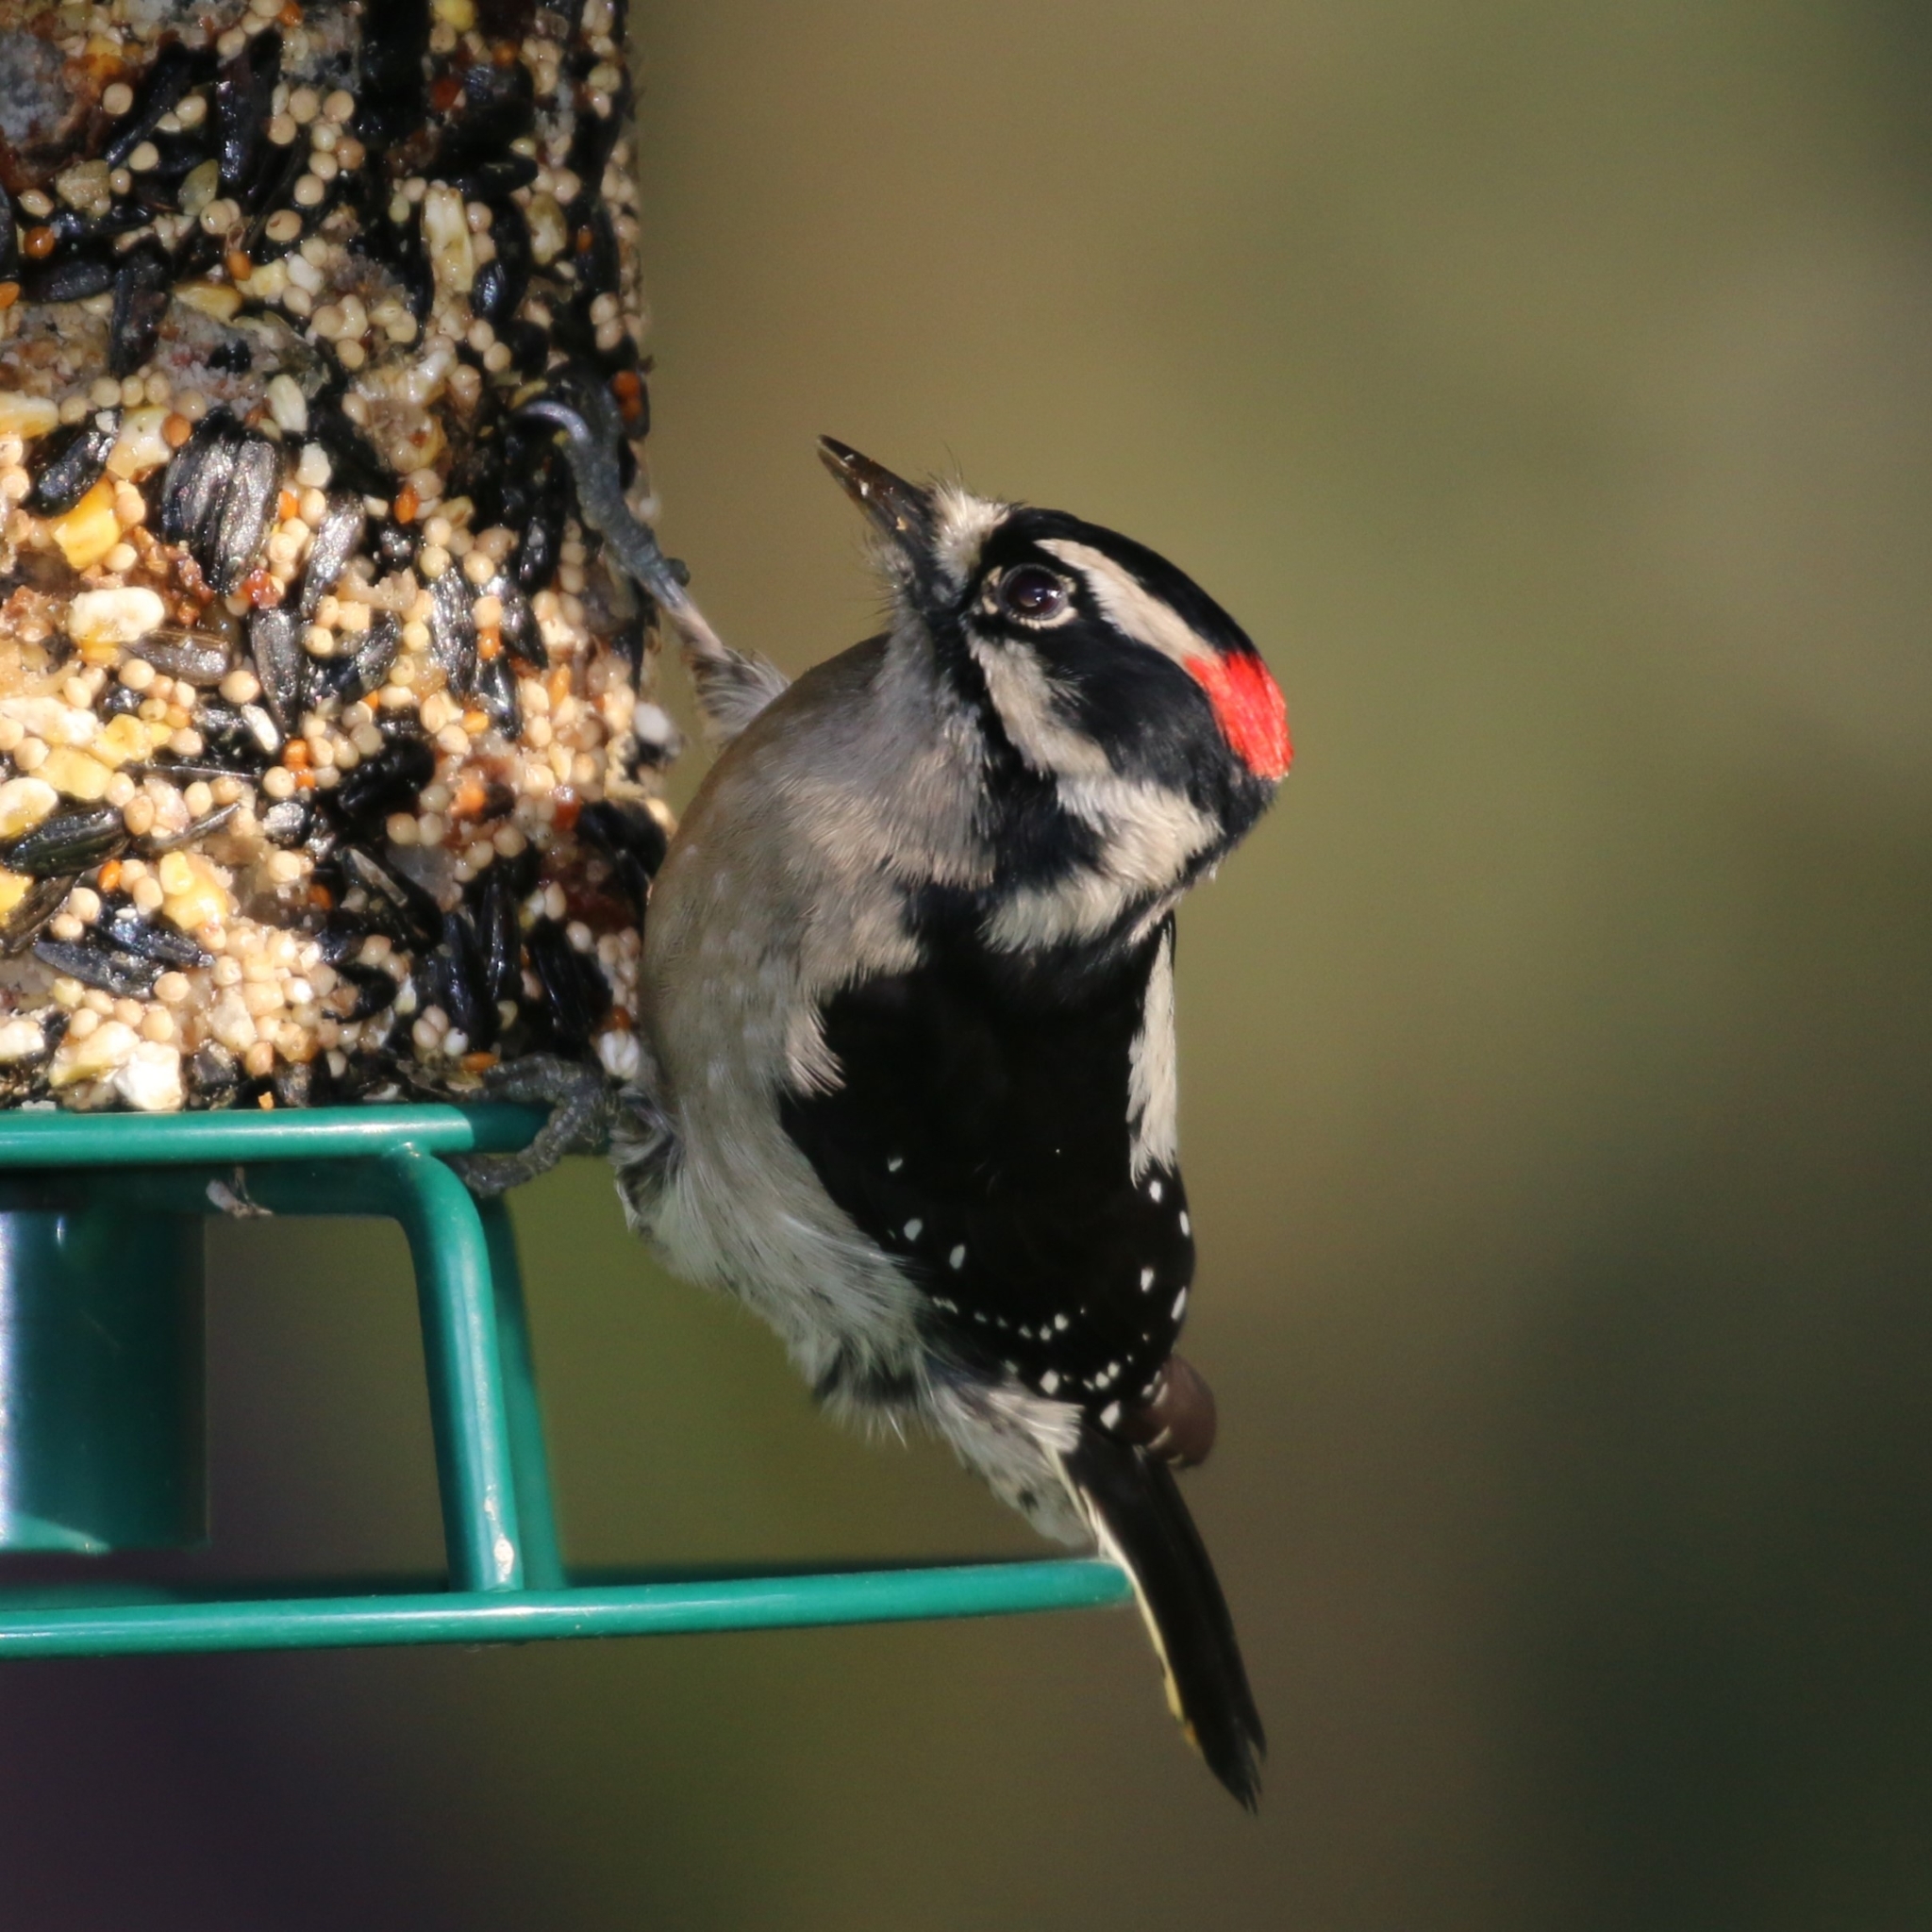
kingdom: Animalia
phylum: Chordata
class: Aves
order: Piciformes
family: Picidae
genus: Dryobates
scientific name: Dryobates pubescens
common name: Downy woodpecker
